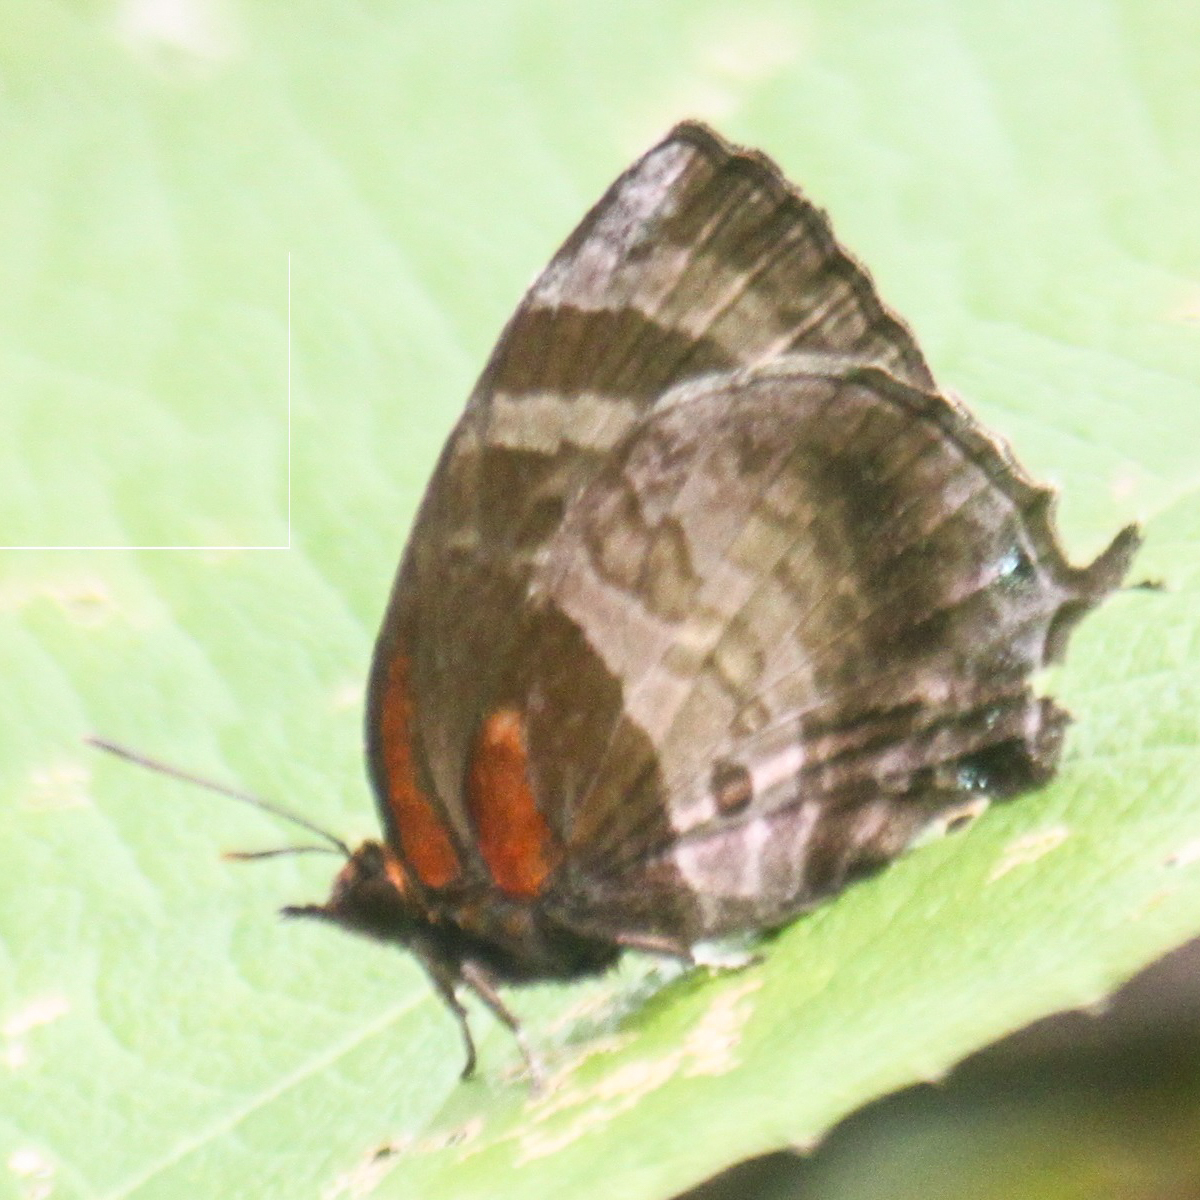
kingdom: Animalia
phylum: Arthropoda
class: Insecta
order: Lepidoptera
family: Lycaenidae
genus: Flos
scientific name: Flos apidanus
